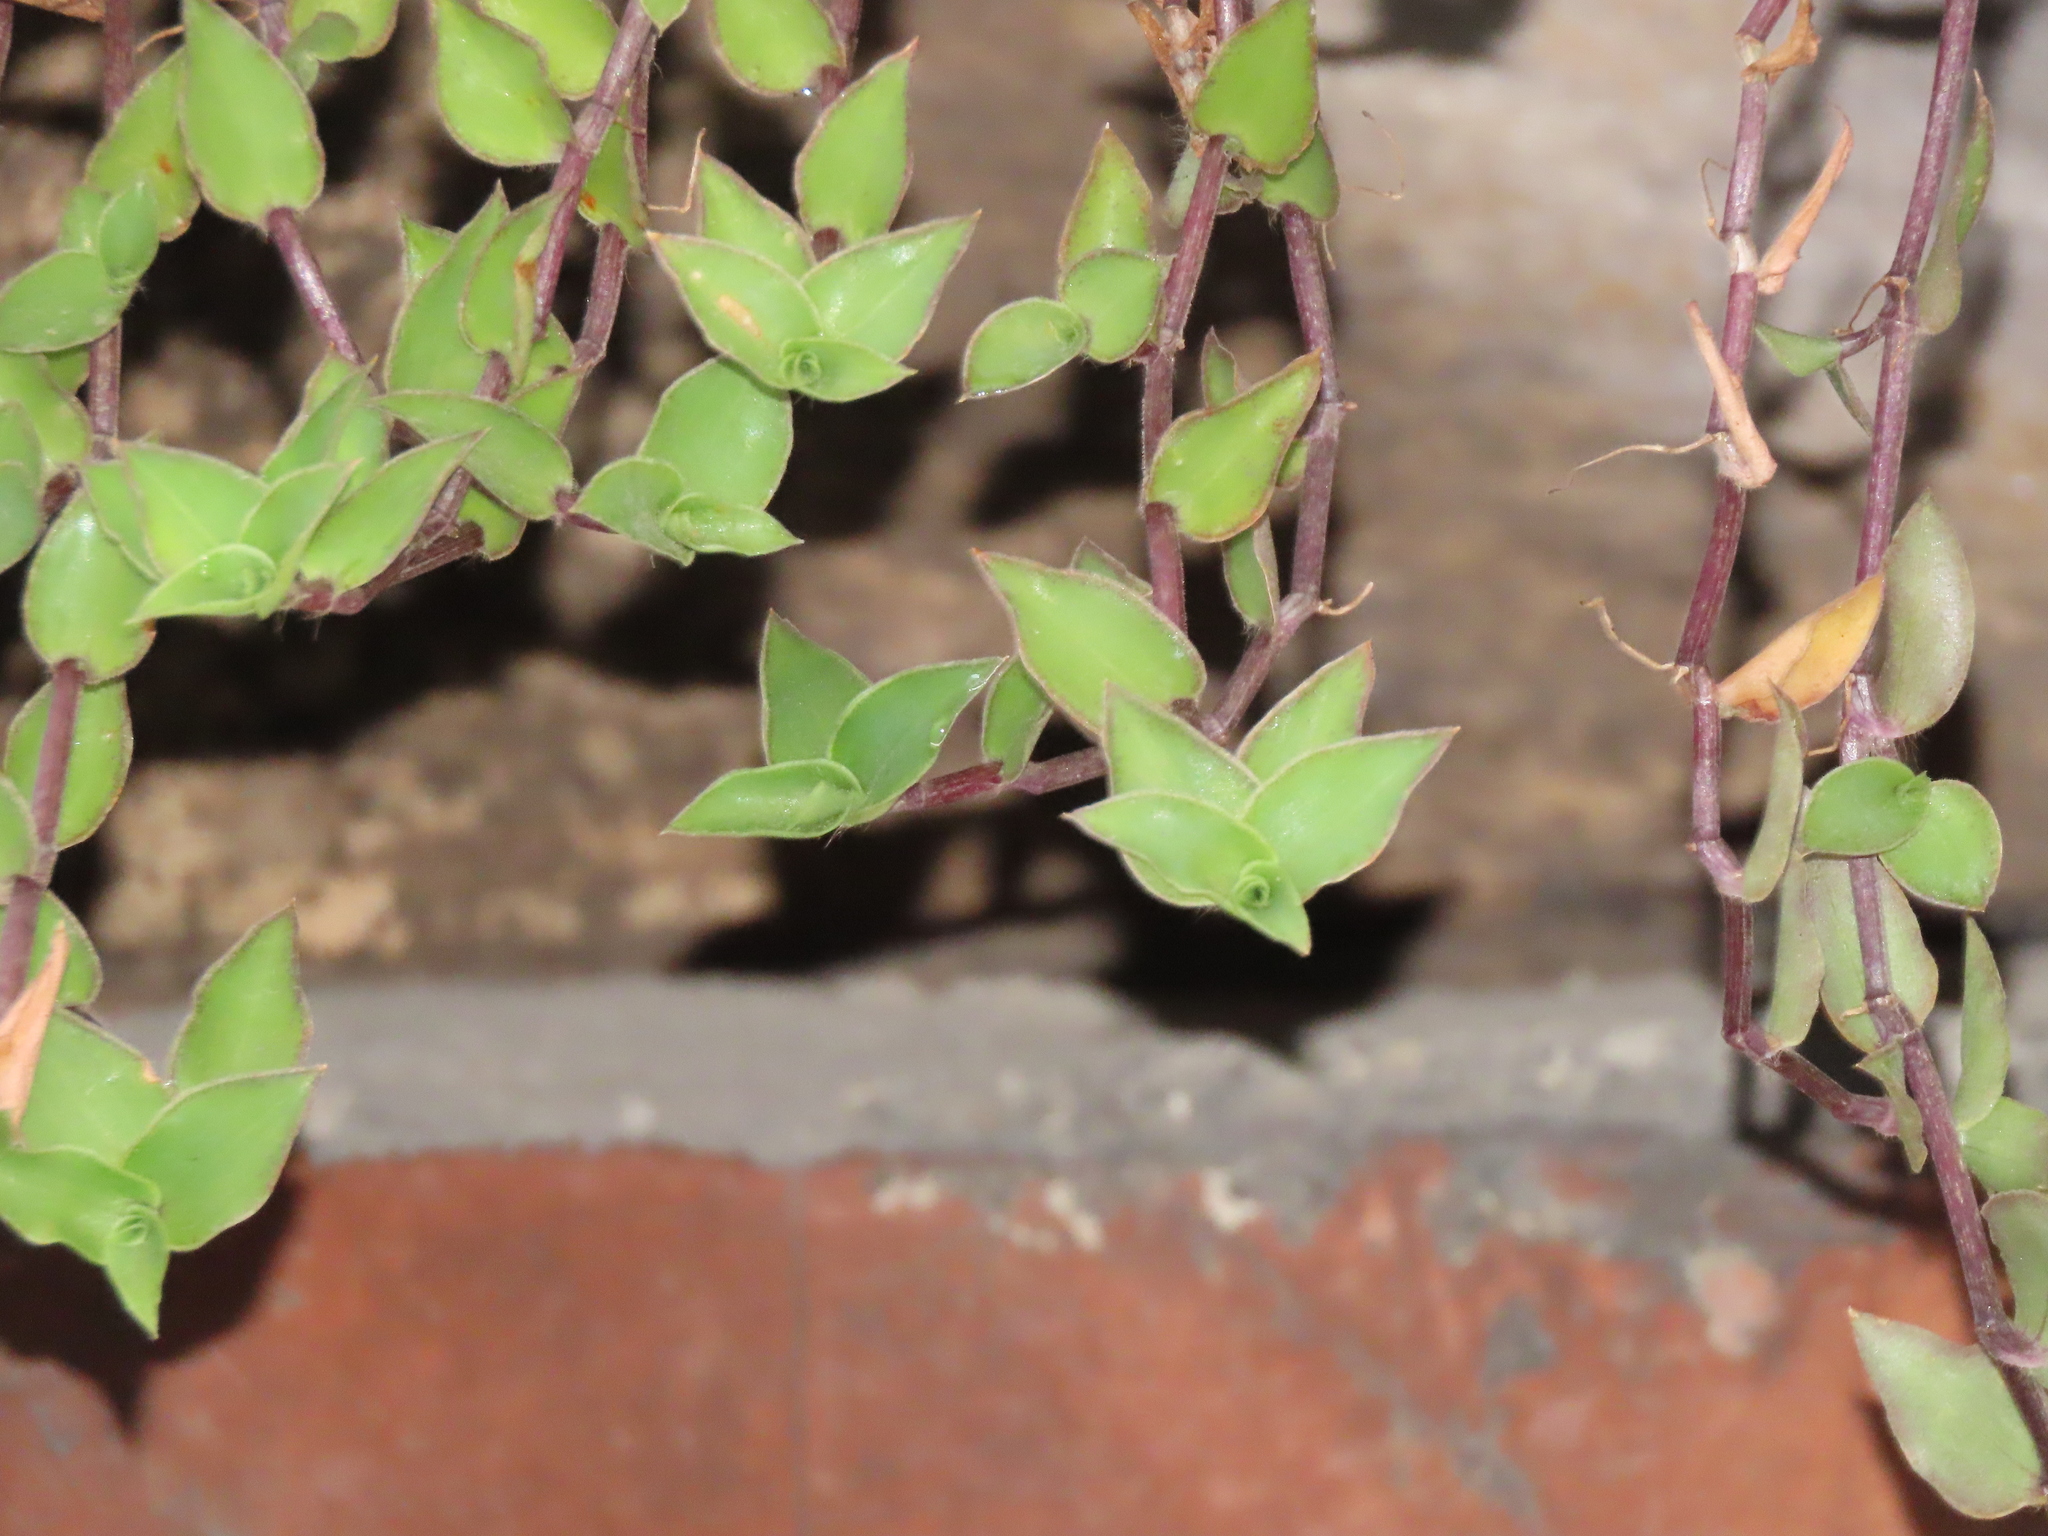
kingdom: Plantae
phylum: Tracheophyta
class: Liliopsida
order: Commelinales
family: Commelinaceae
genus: Callisia
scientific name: Callisia repens
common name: Creeping inchplant
